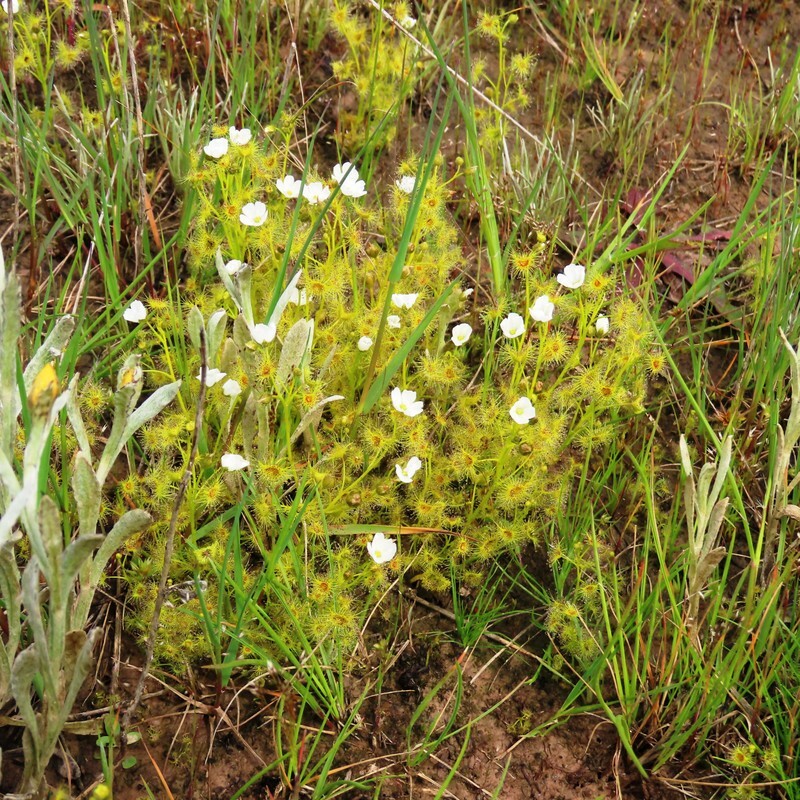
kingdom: Plantae
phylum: Tracheophyta
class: Magnoliopsida
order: Caryophyllales
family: Droseraceae
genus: Drosera
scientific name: Drosera hookeri
